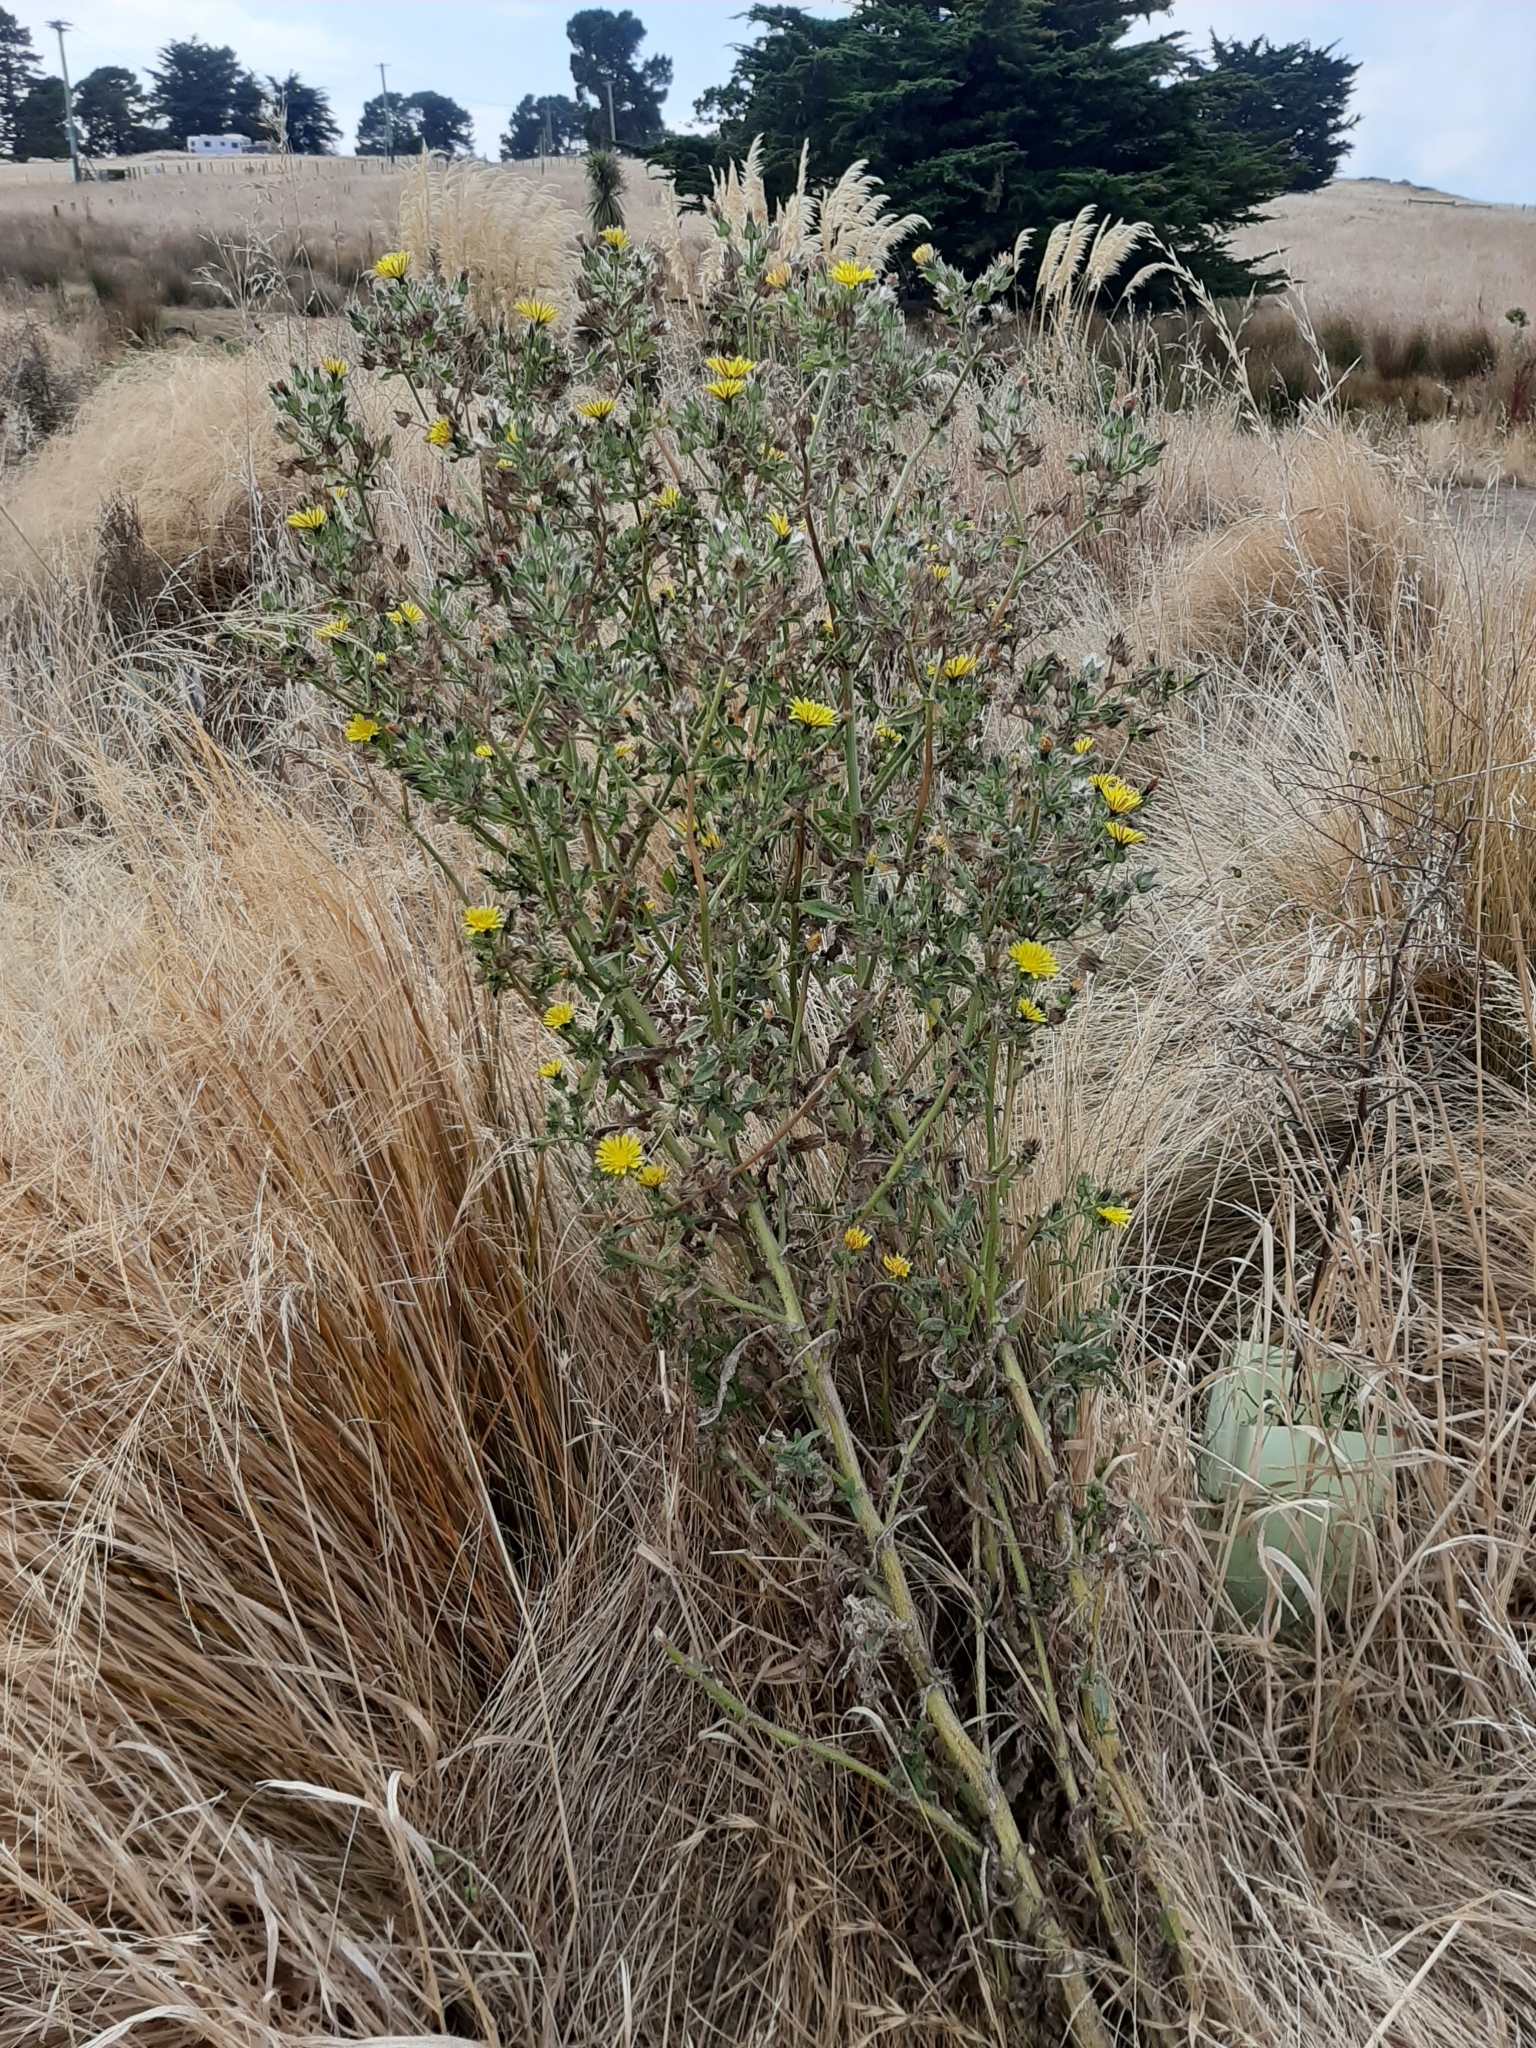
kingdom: Plantae
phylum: Tracheophyta
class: Magnoliopsida
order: Asterales
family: Asteraceae
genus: Helminthotheca
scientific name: Helminthotheca echioides
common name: Ox-tongue
